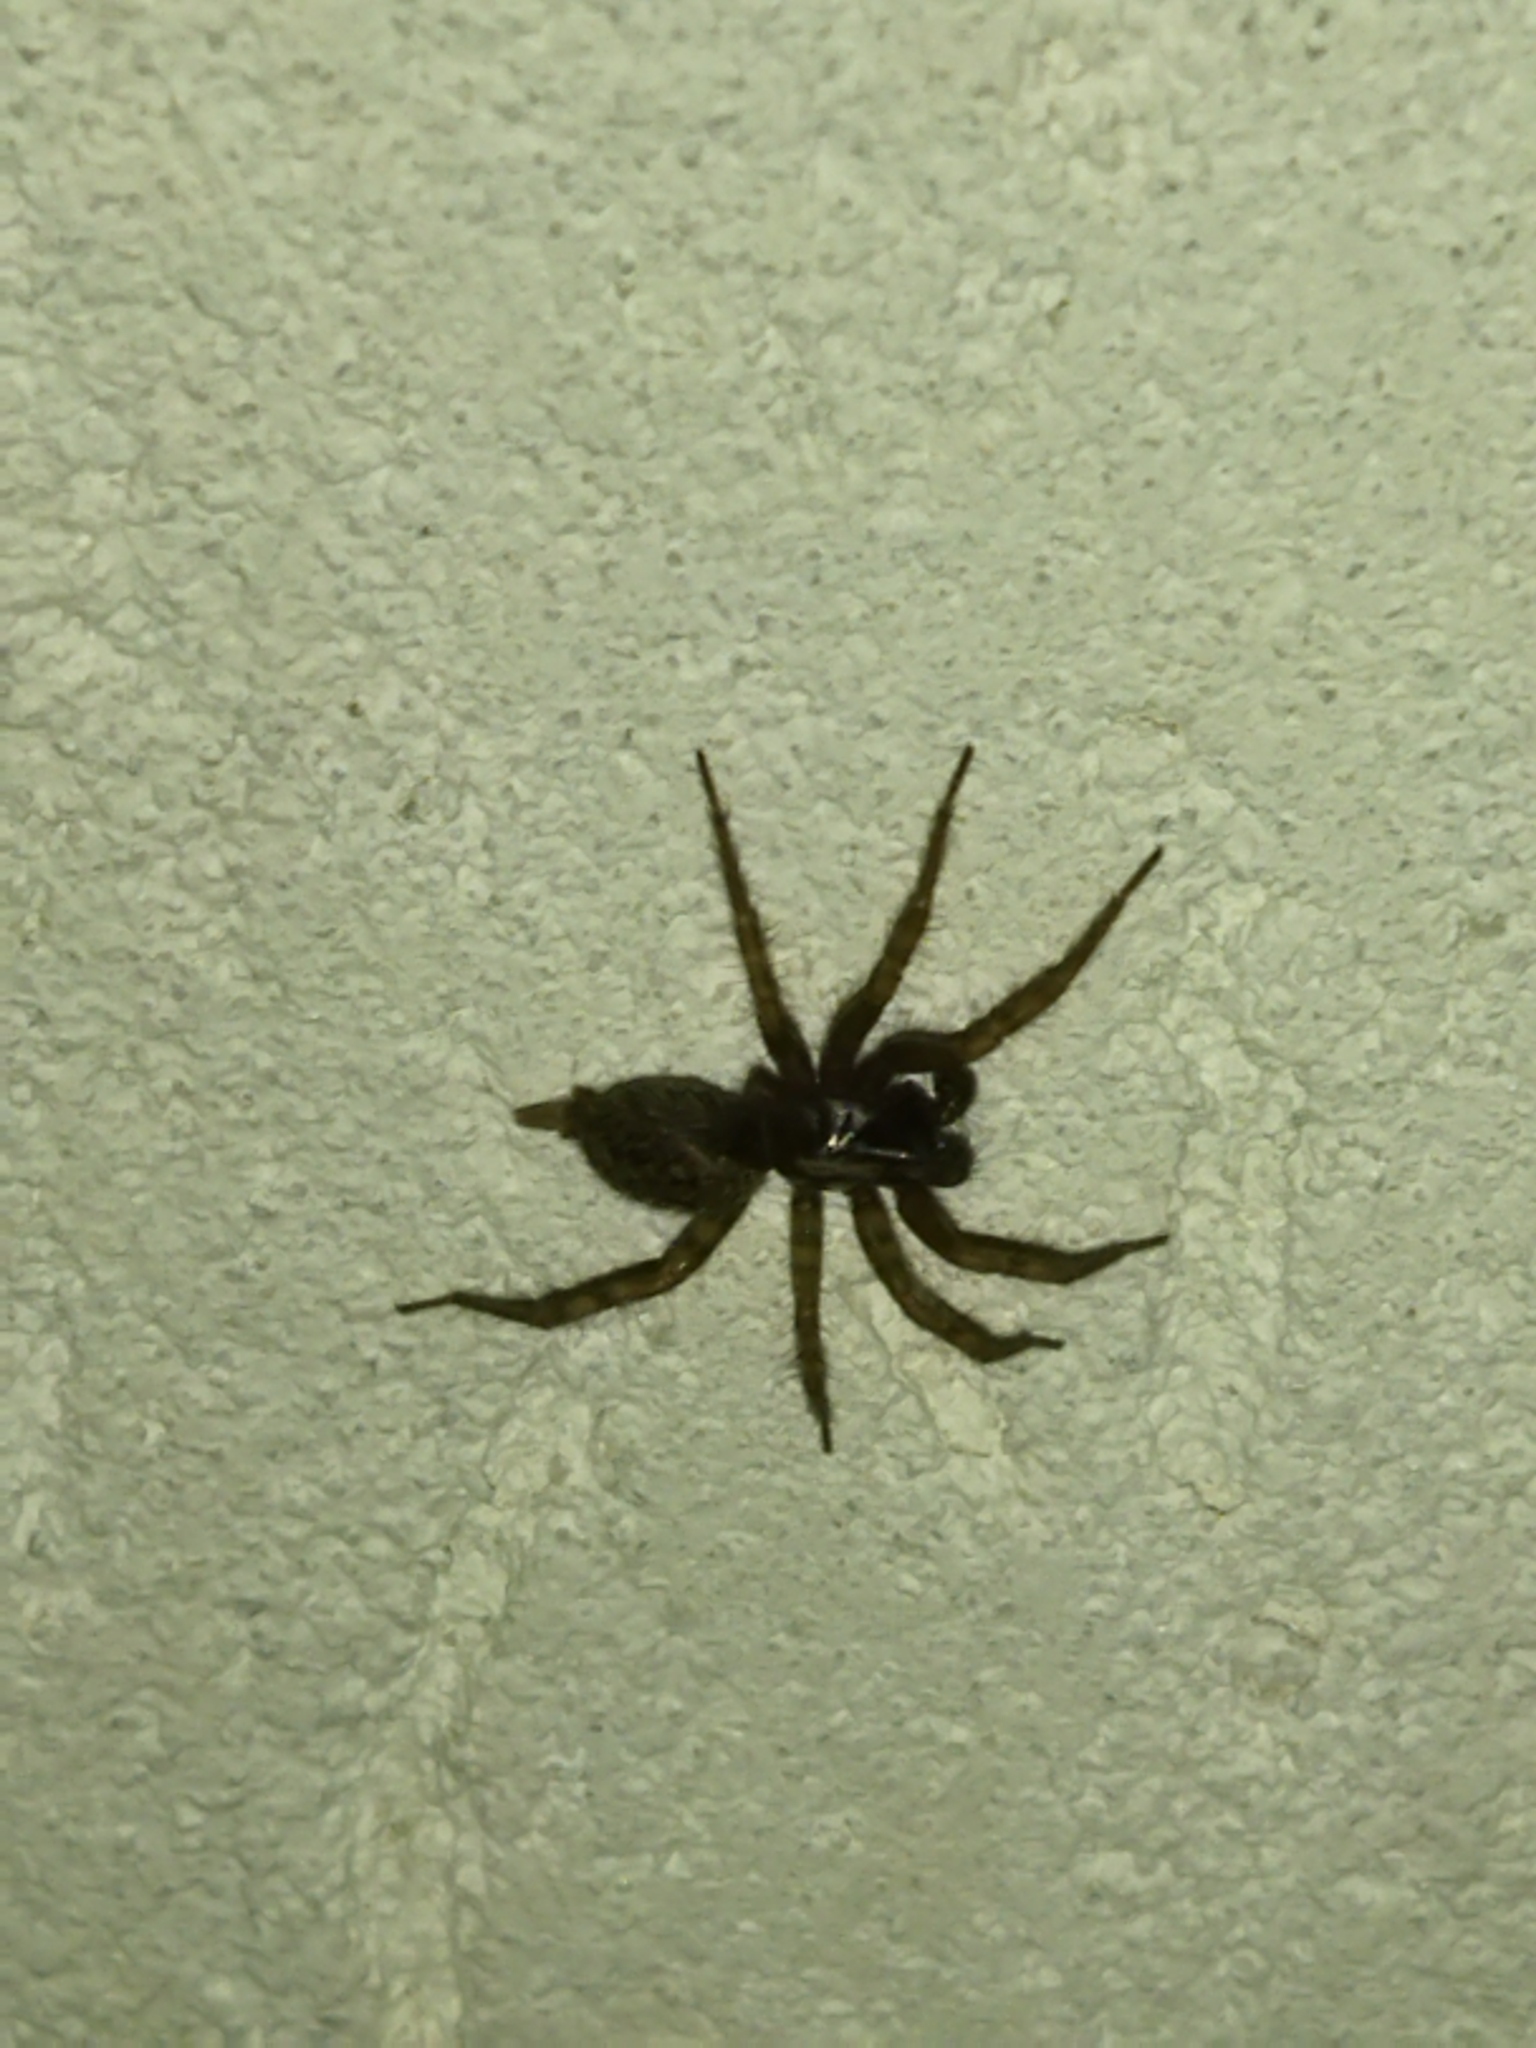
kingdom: Animalia
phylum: Arthropoda
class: Arachnida
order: Araneae
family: Agelenidae
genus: Maimuna
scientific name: Maimuna vestita
